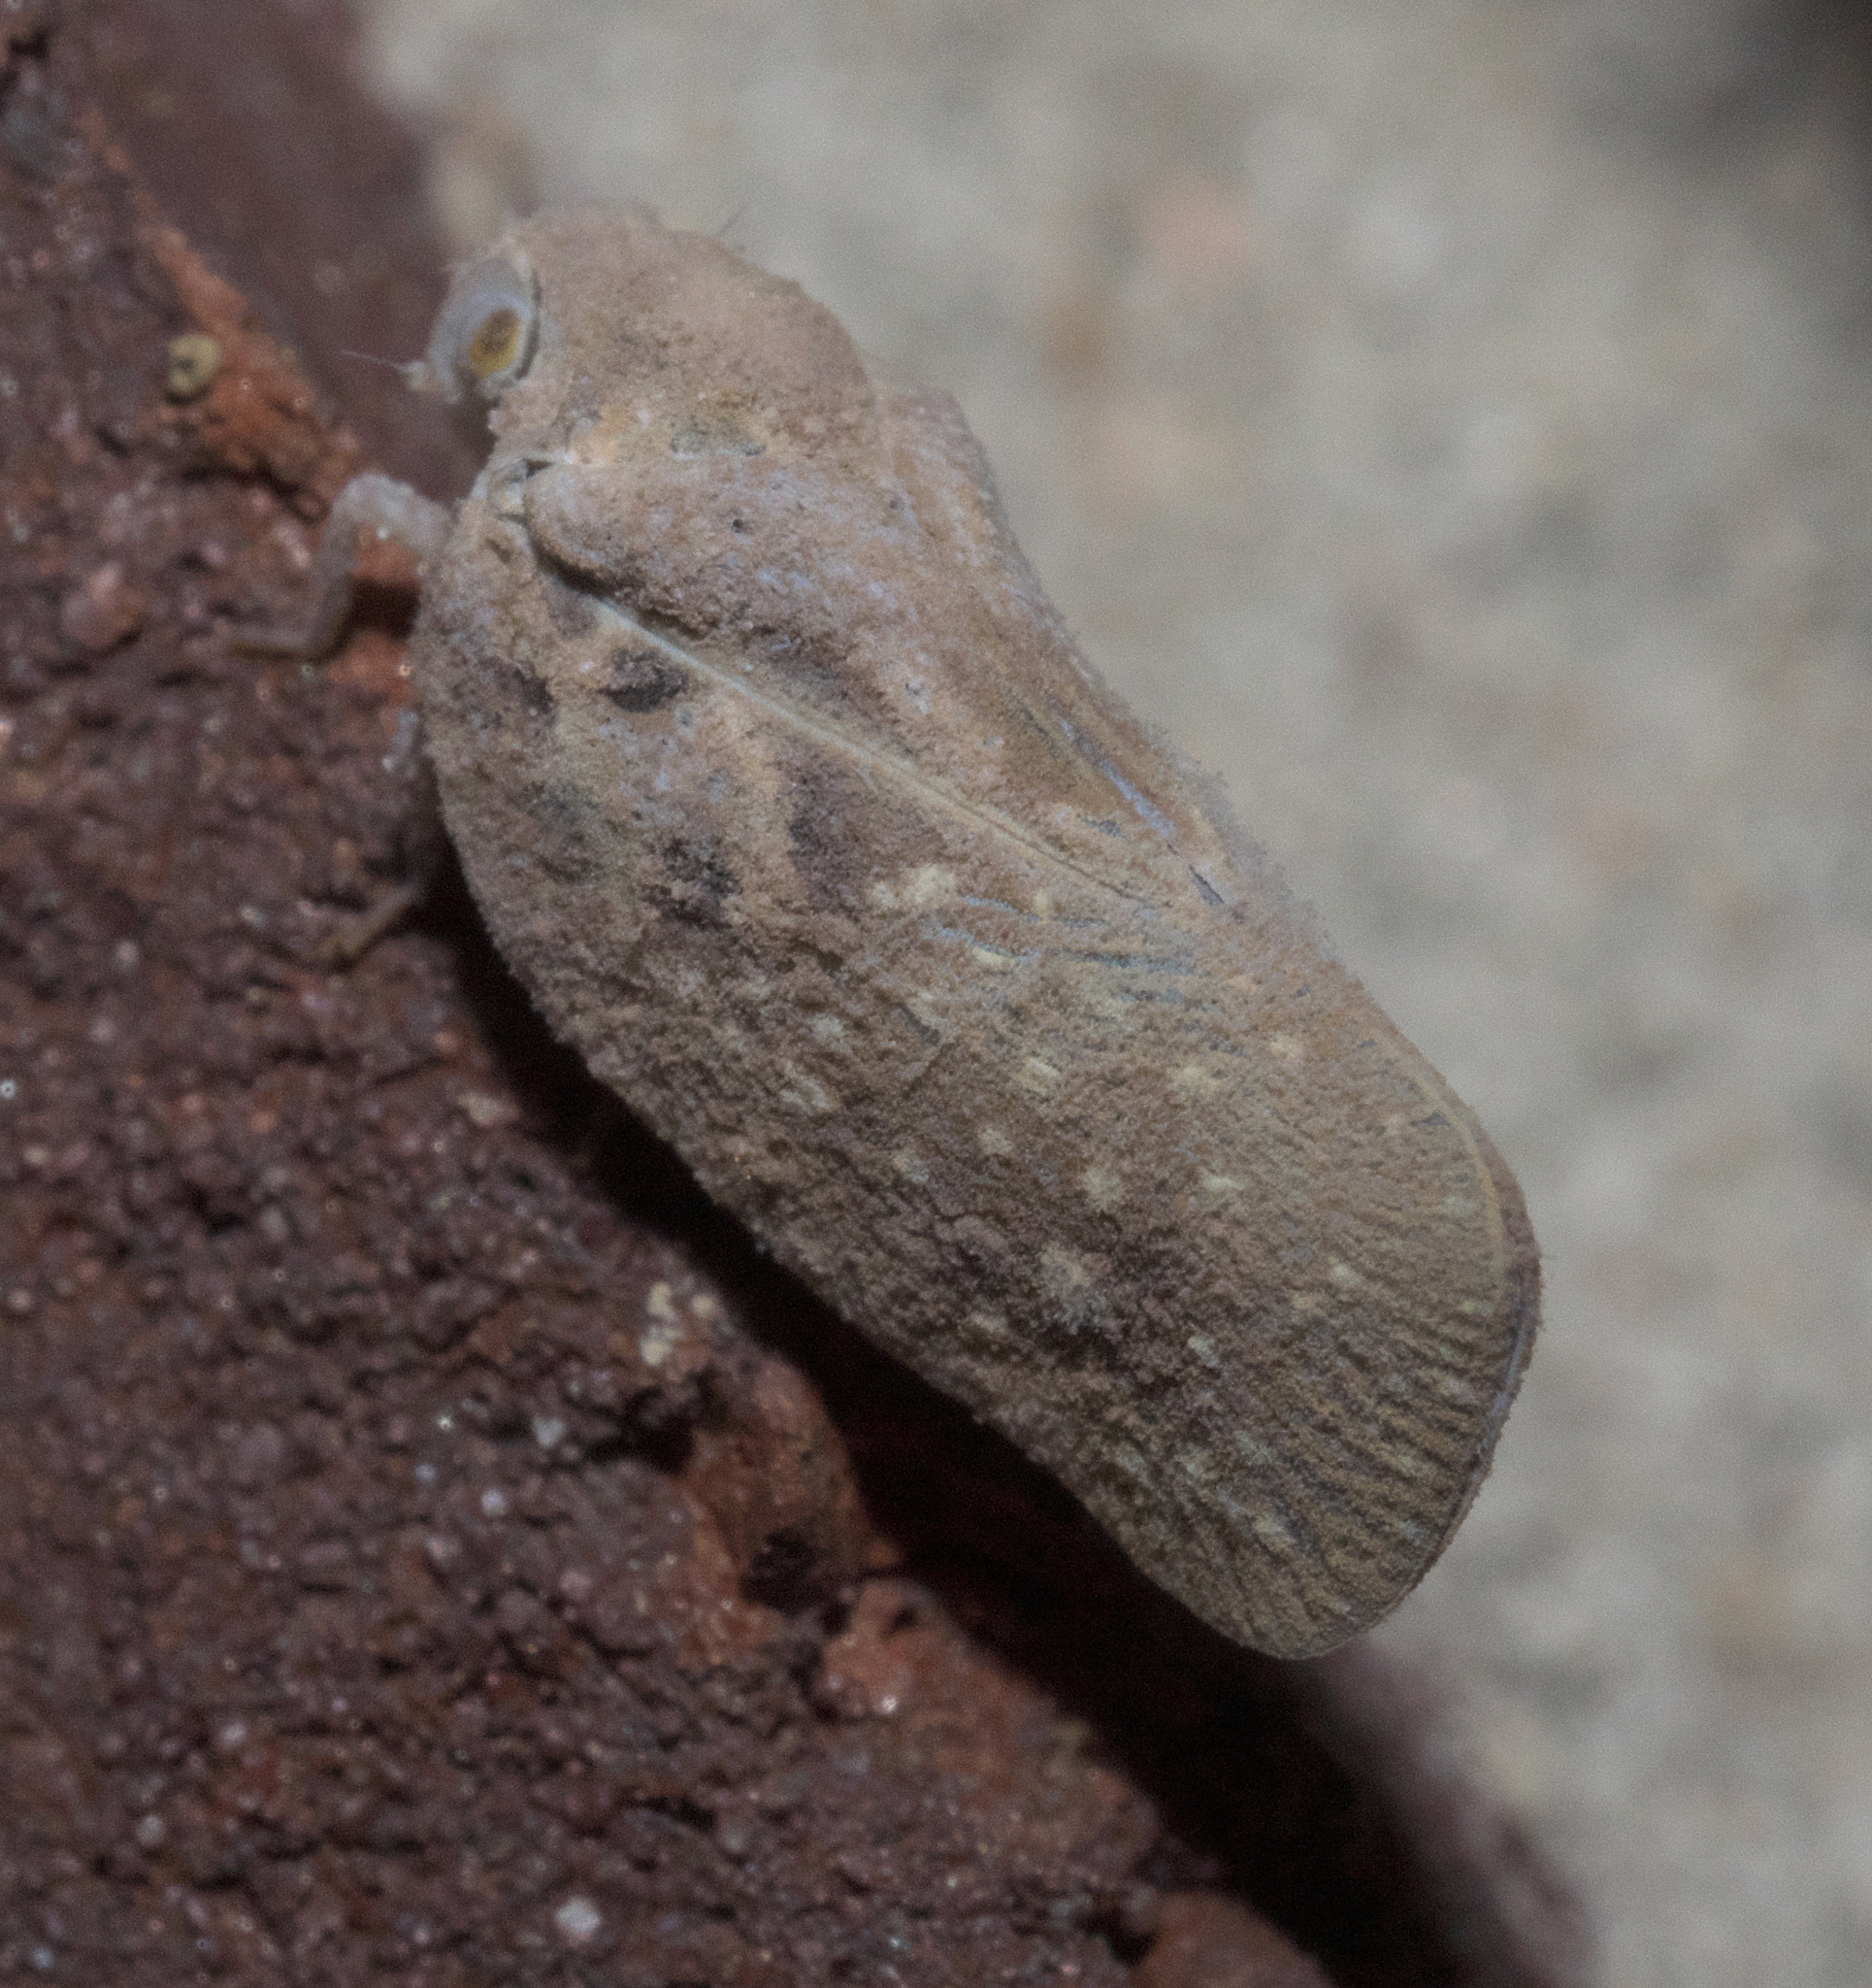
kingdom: Animalia
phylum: Arthropoda
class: Insecta
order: Hemiptera
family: Flatidae
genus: Metcalfa
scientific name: Metcalfa pruinosa
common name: Citrus flatid planthopper
